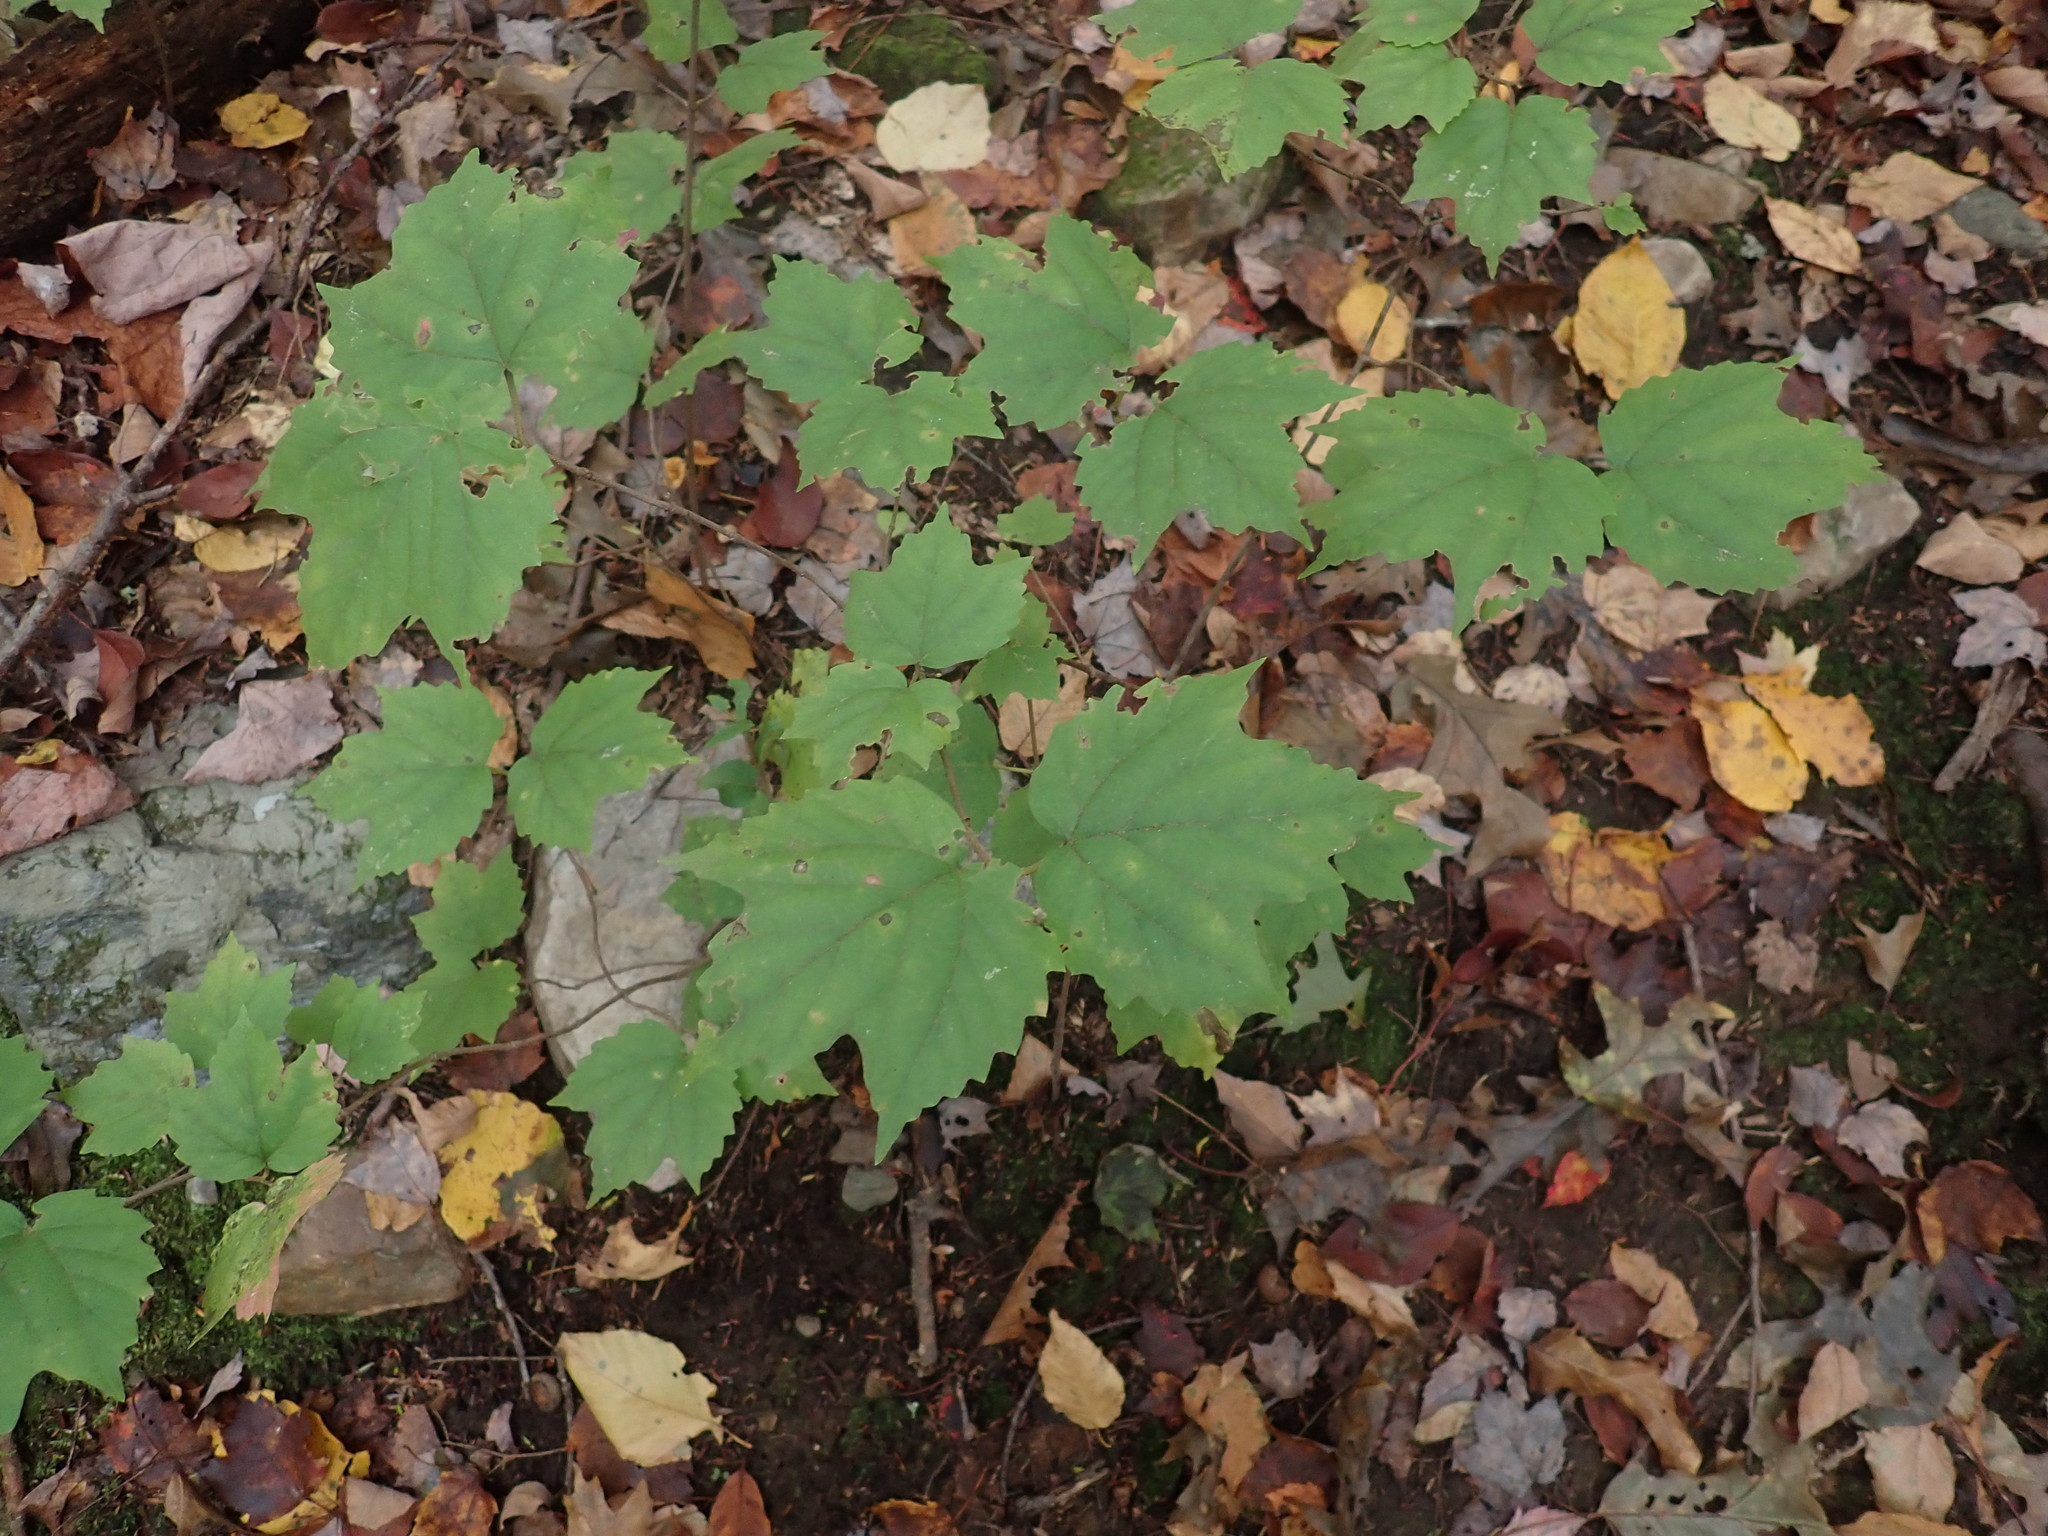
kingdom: Plantae
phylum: Tracheophyta
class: Magnoliopsida
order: Dipsacales
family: Viburnaceae
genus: Viburnum
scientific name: Viburnum acerifolium
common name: Dockmackie
